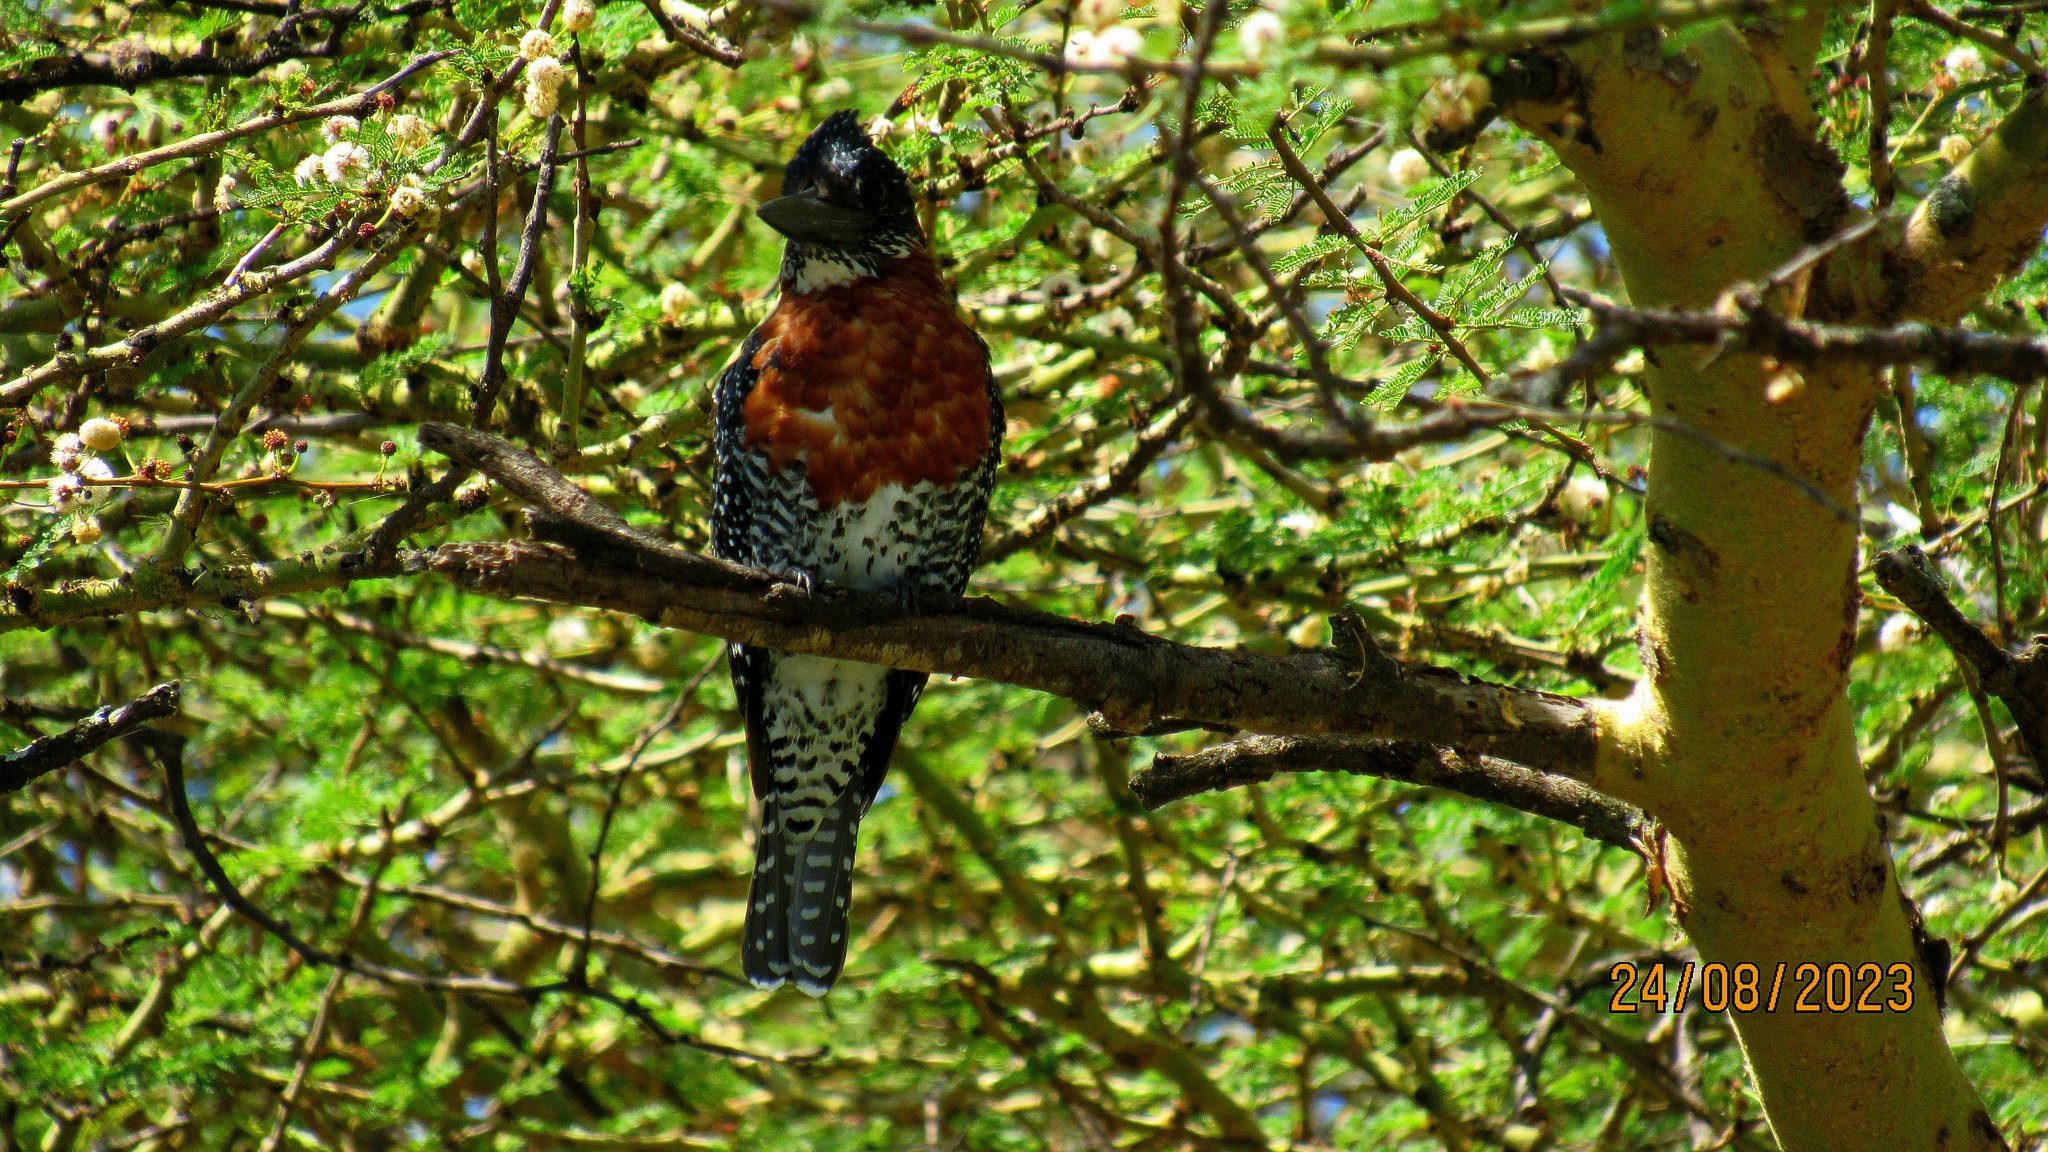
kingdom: Animalia
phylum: Chordata
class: Aves
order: Coraciiformes
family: Alcedinidae
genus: Megaceryle
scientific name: Megaceryle maxima
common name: Giant kingfisher
